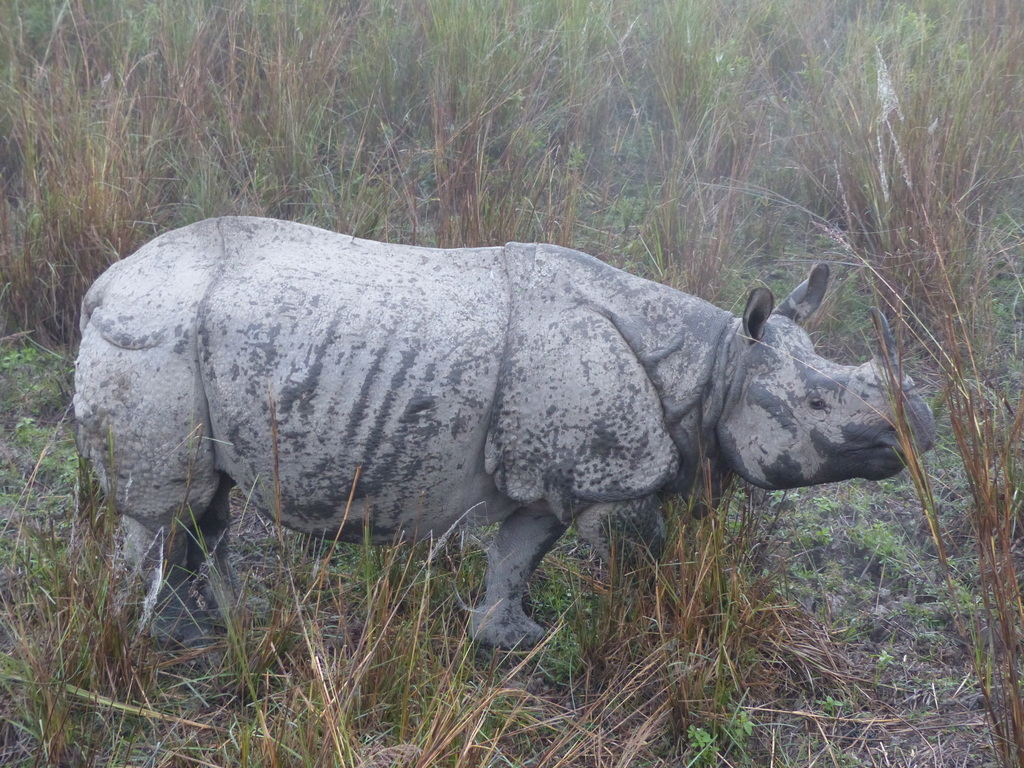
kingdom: Animalia
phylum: Chordata
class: Mammalia
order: Perissodactyla
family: Rhinocerotidae
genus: Rhinoceros
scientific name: Rhinoceros unicornis
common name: Indian rhinoceros
